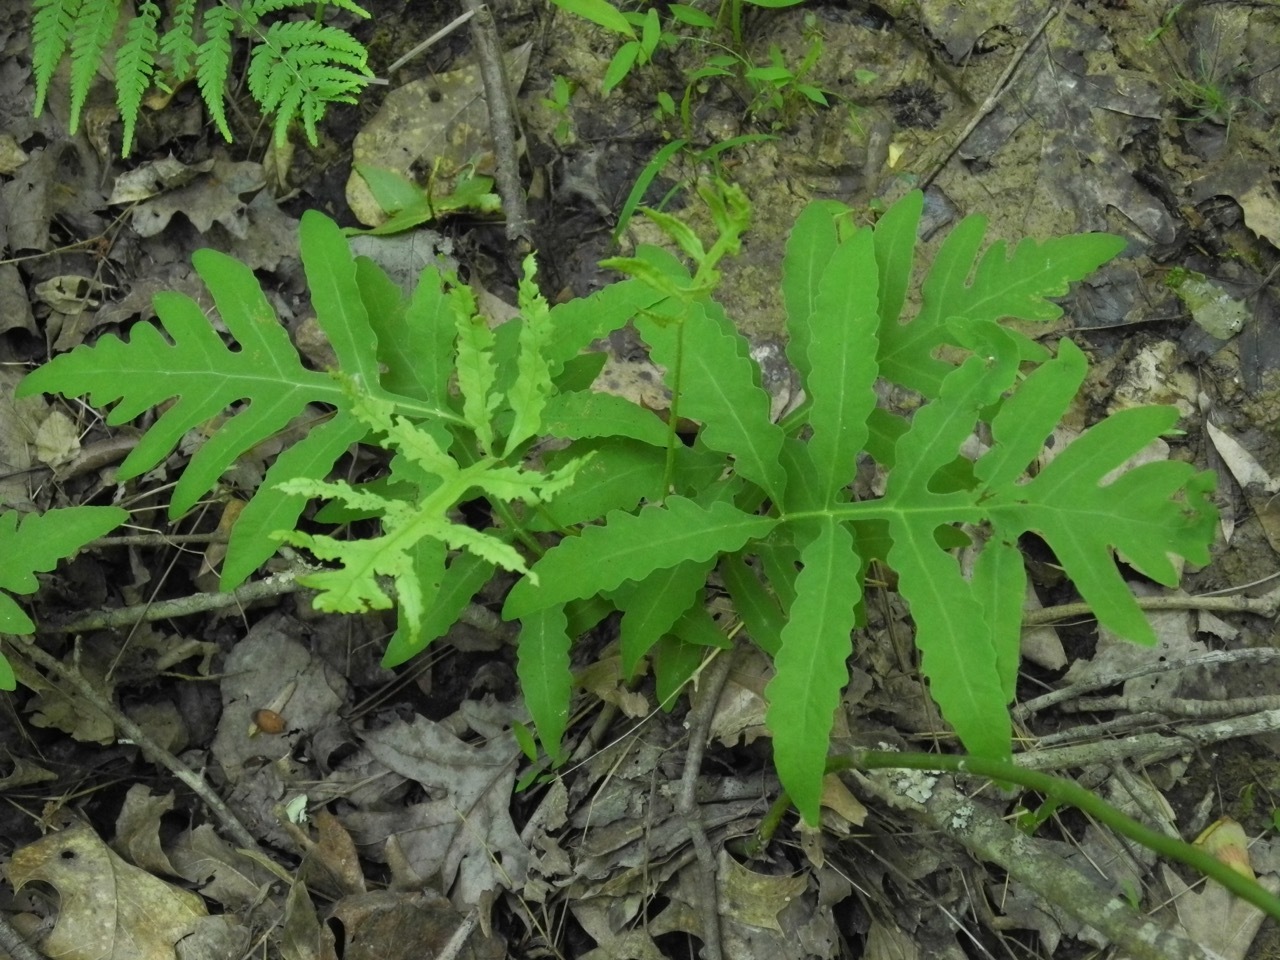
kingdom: Plantae
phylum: Tracheophyta
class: Polypodiopsida
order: Polypodiales
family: Onocleaceae
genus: Onoclea
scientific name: Onoclea sensibilis
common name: Sensitive fern
